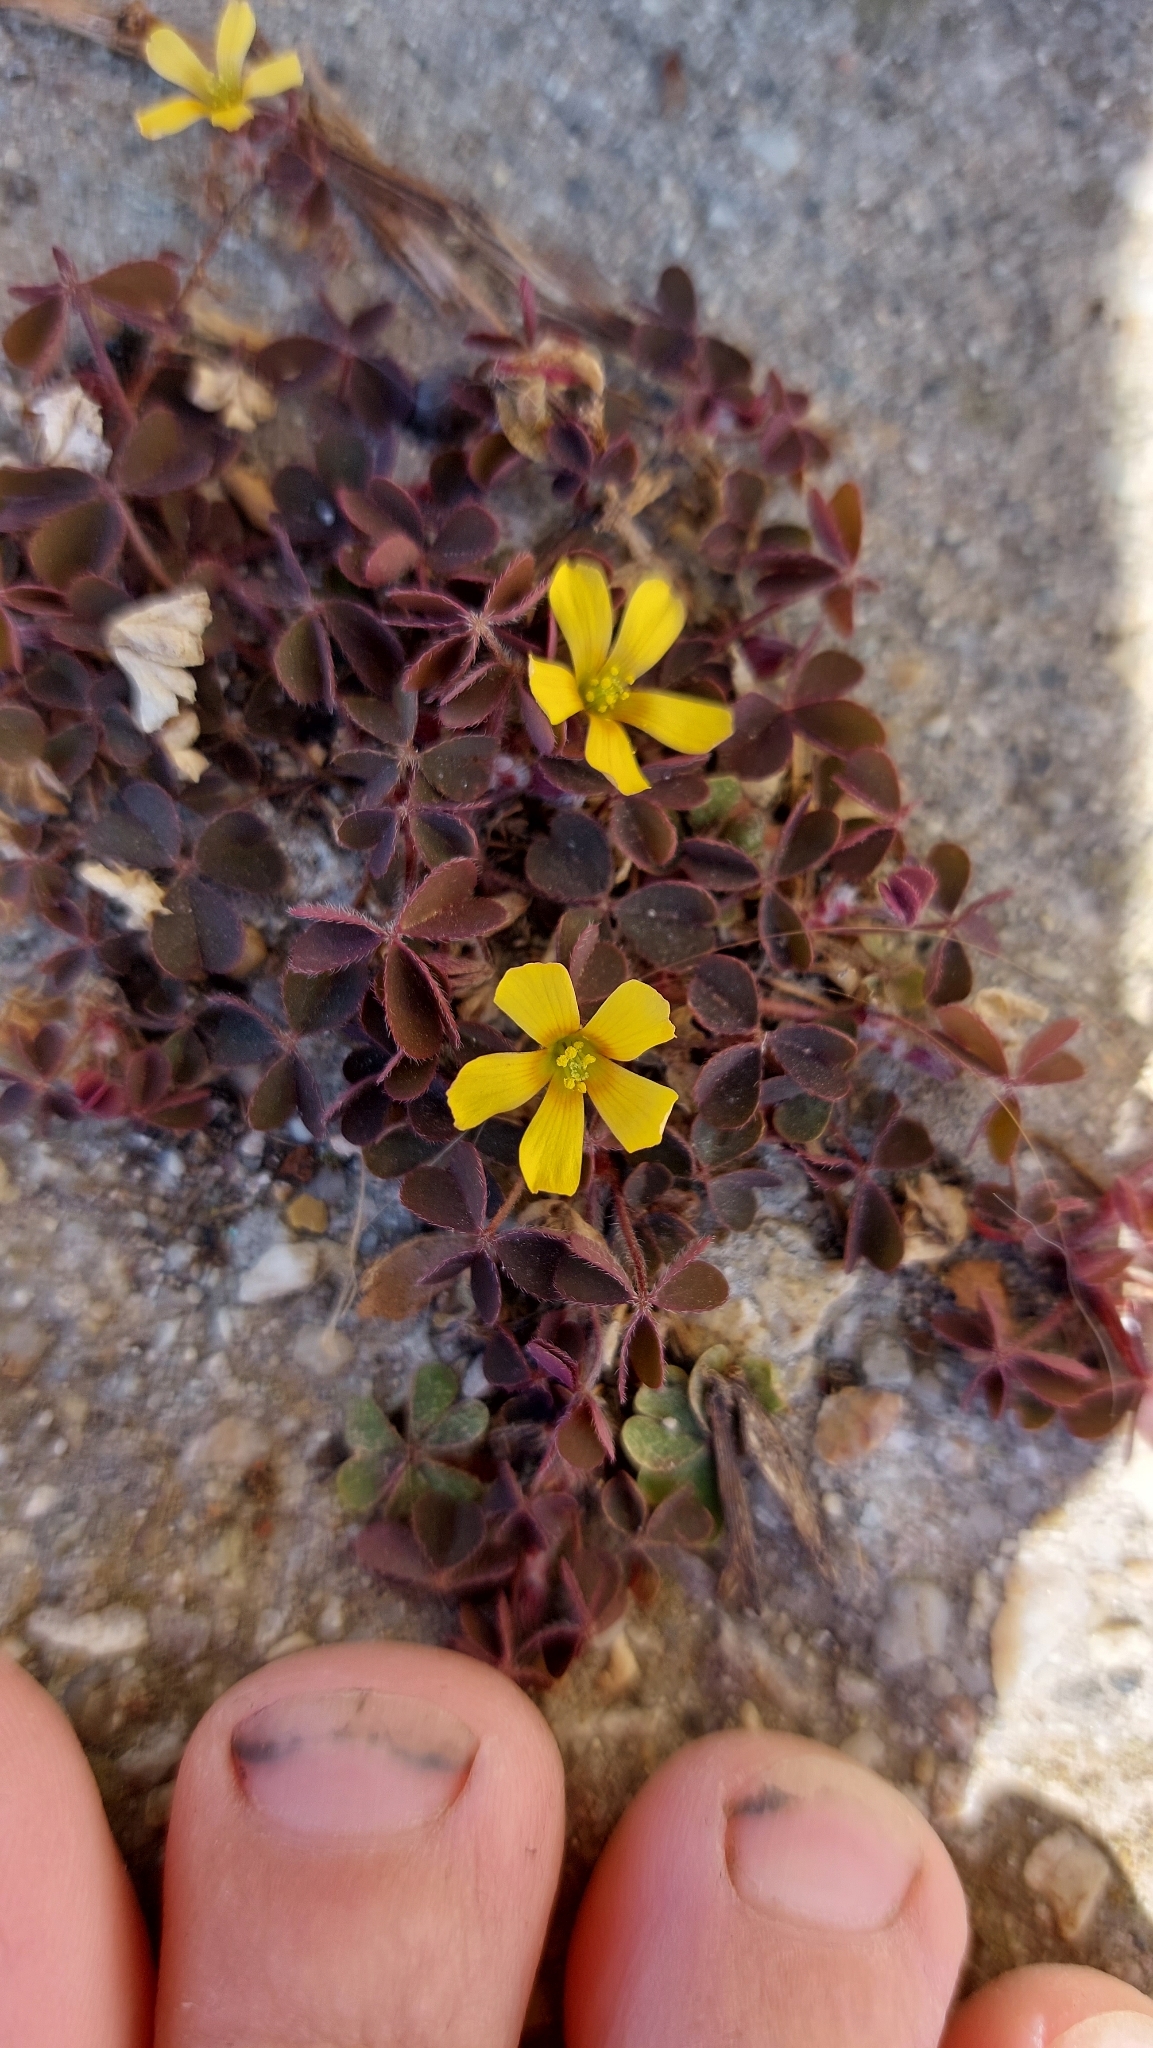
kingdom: Plantae
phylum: Tracheophyta
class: Magnoliopsida
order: Oxalidales
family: Oxalidaceae
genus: Oxalis
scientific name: Oxalis corniculata
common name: Procumbent yellow-sorrel
